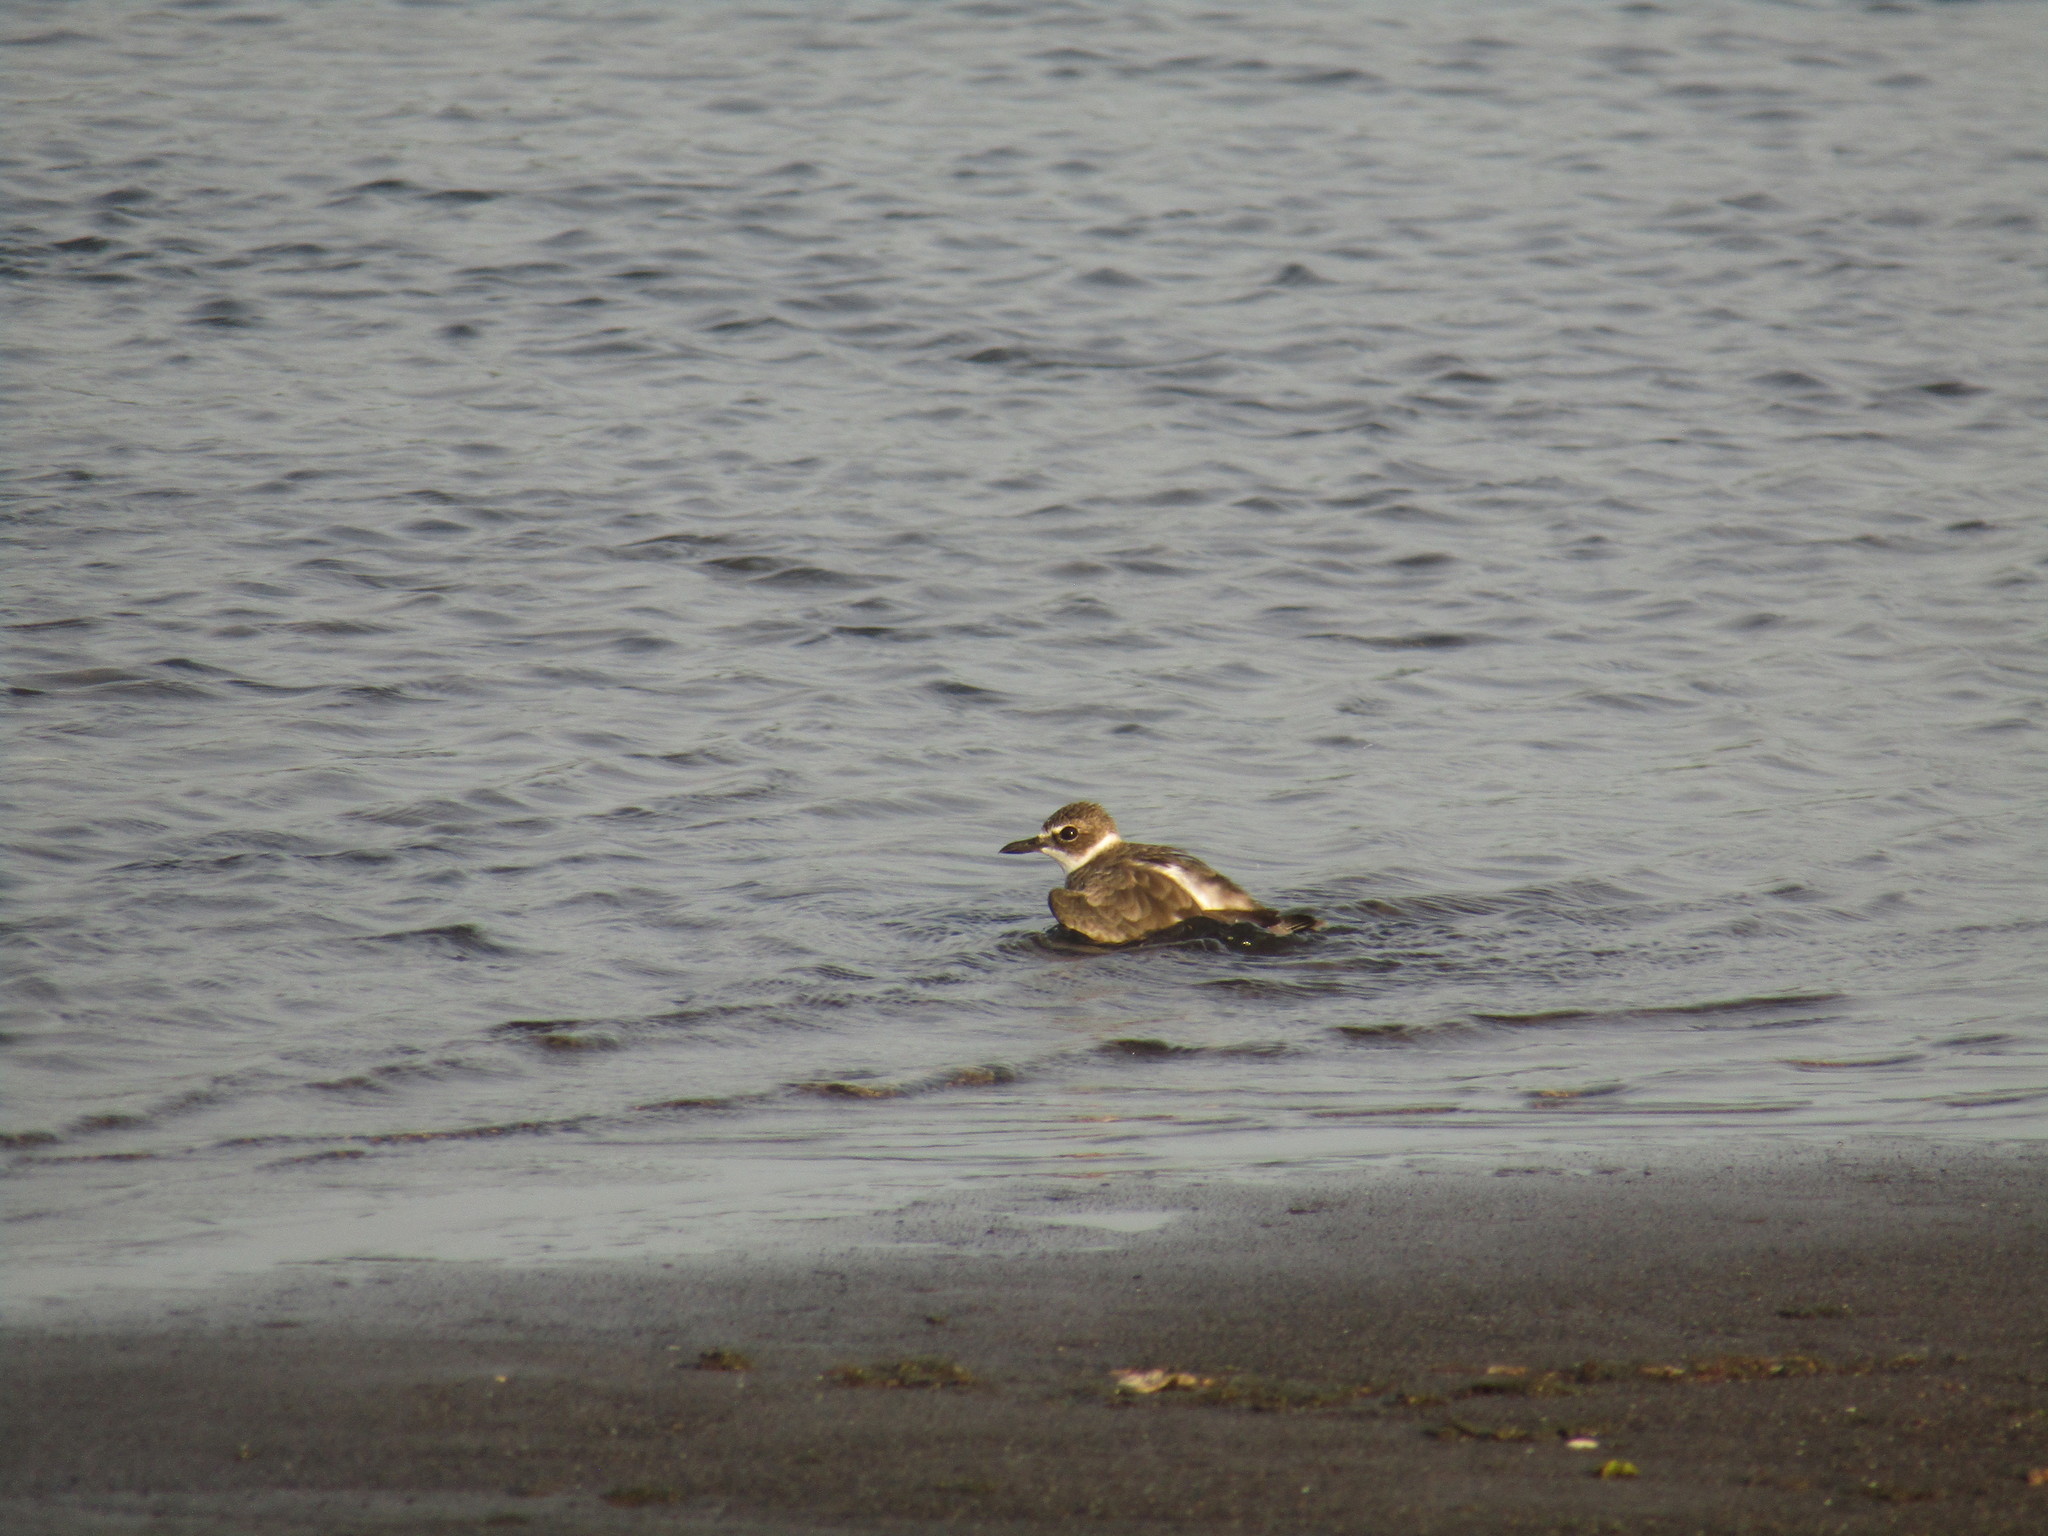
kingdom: Animalia
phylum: Chordata
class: Aves
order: Charadriiformes
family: Charadriidae
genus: Anarhynchus
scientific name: Anarhynchus
